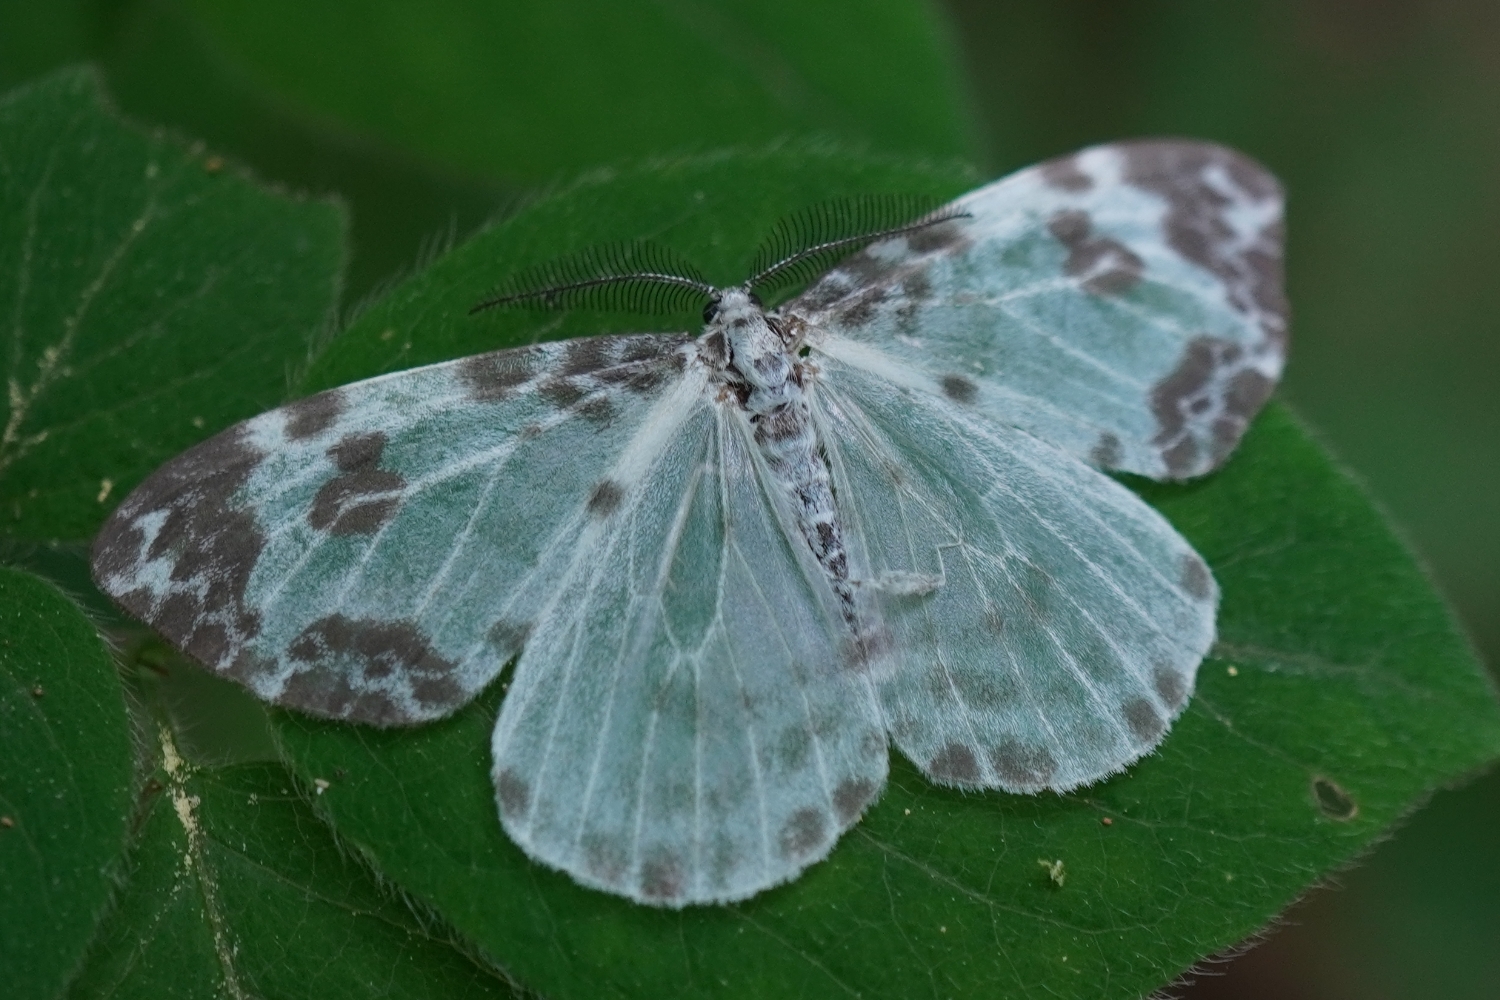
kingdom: Animalia
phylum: Arthropoda
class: Insecta
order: Lepidoptera
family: Drepanidae
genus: Deroca
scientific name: Deroca inconclusa
